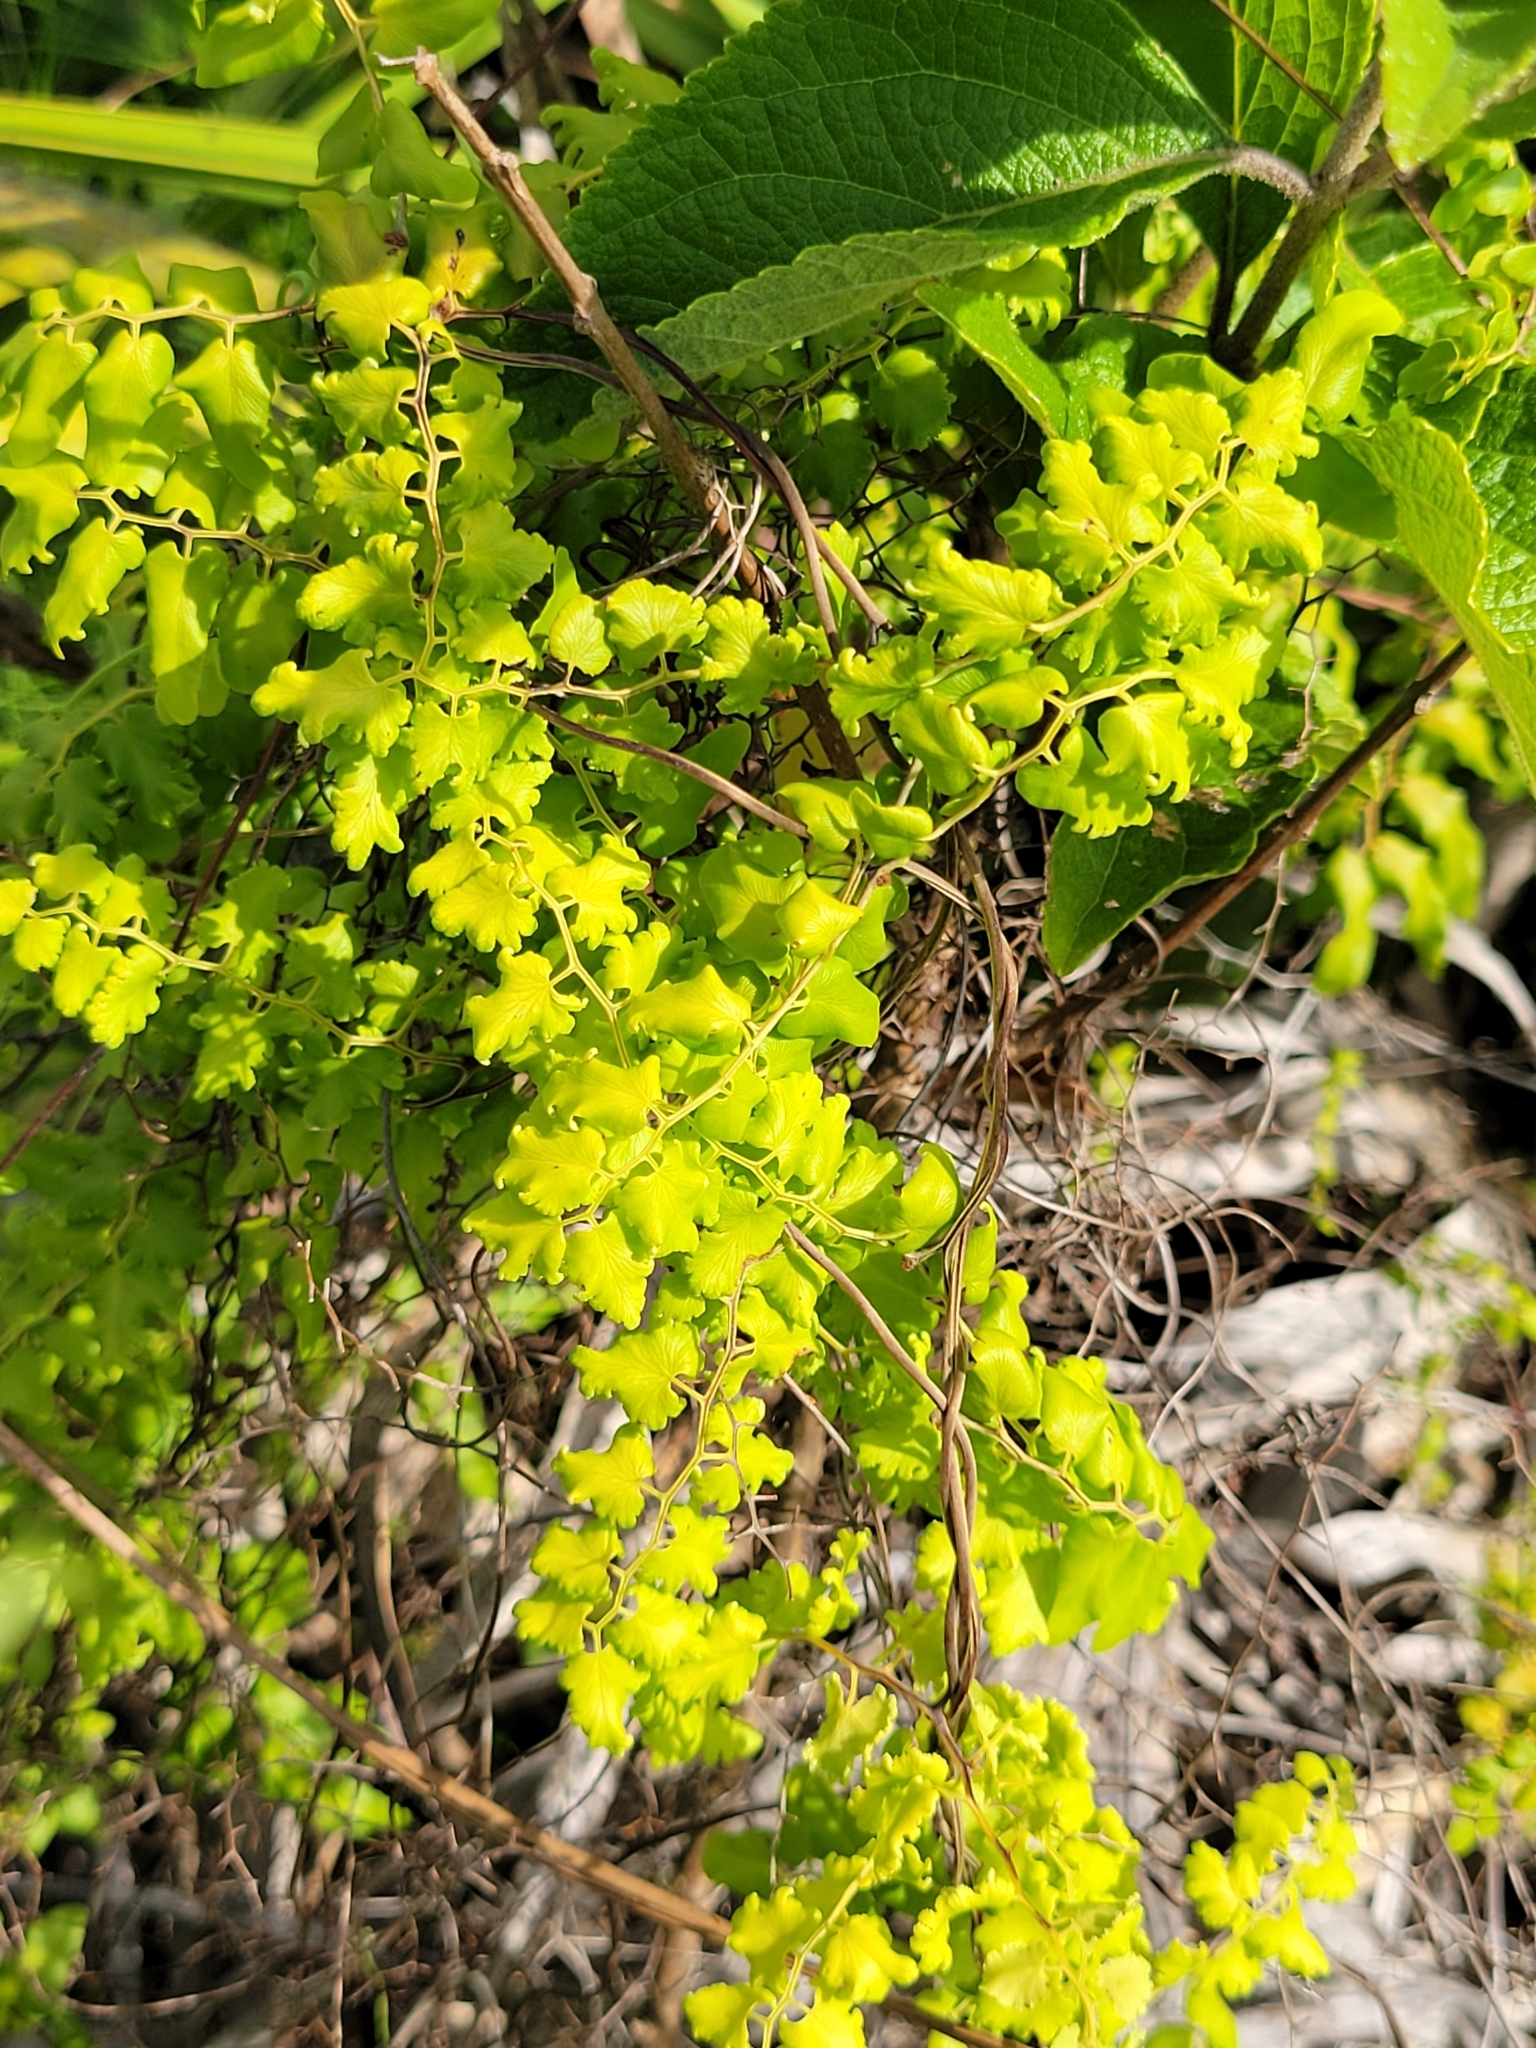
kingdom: Plantae
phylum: Tracheophyta
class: Polypodiopsida
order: Schizaeales
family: Lygodiaceae
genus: Lygodium
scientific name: Lygodium microphyllum
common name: Small-leaf climbing fern
